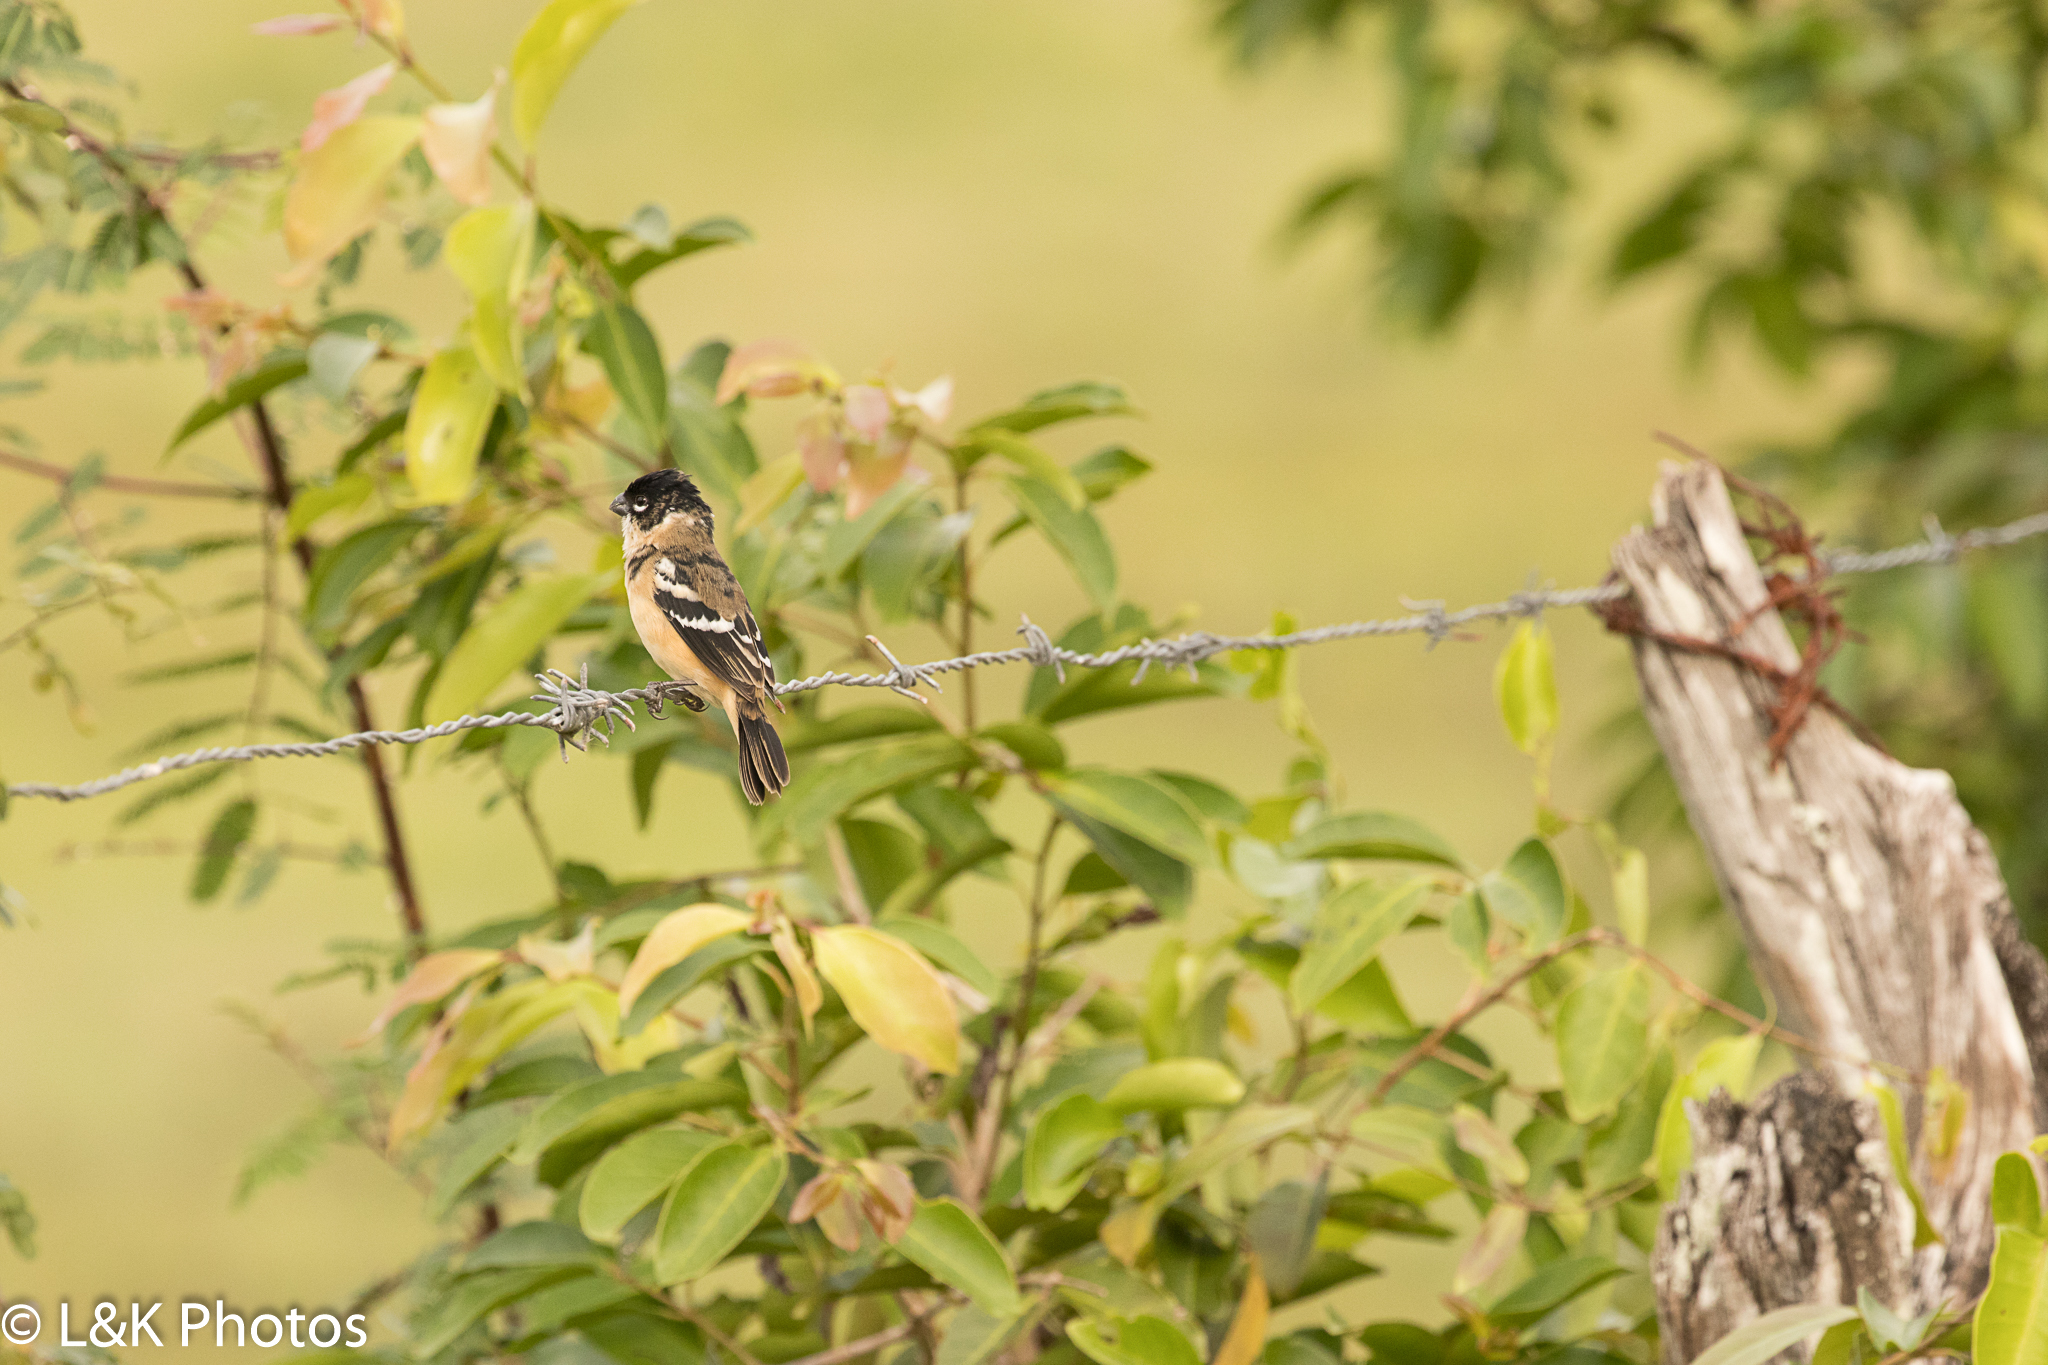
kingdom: Animalia
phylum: Chordata
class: Aves
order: Passeriformes
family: Thraupidae
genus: Sporophila
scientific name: Sporophila morelleti
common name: Morelet's seedeater
